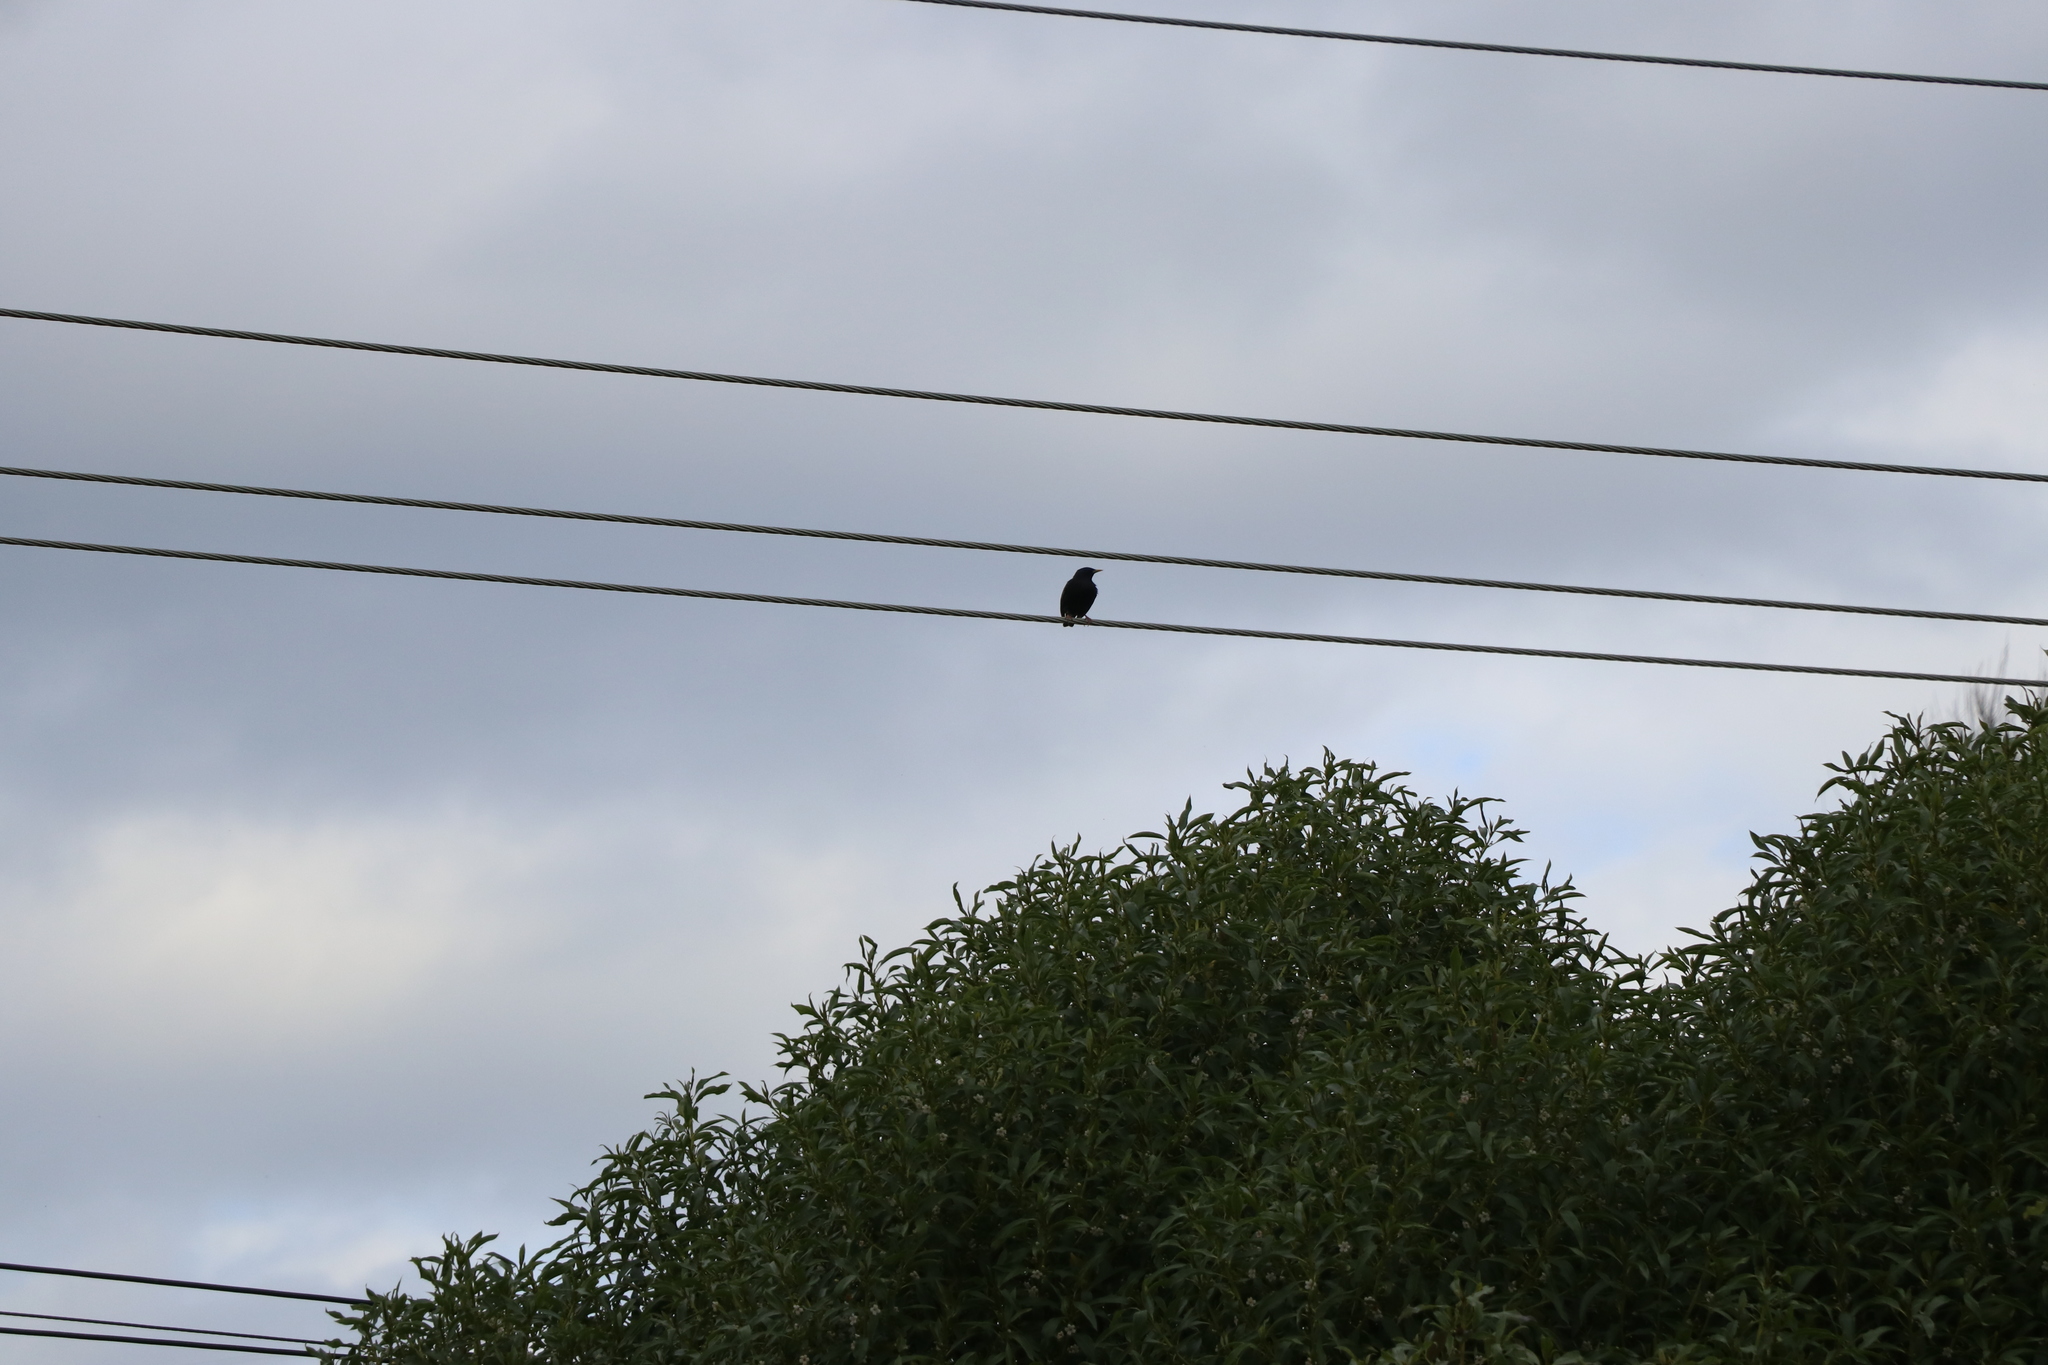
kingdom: Animalia
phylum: Chordata
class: Aves
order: Passeriformes
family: Sturnidae
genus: Sturnus
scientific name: Sturnus vulgaris
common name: Common starling
